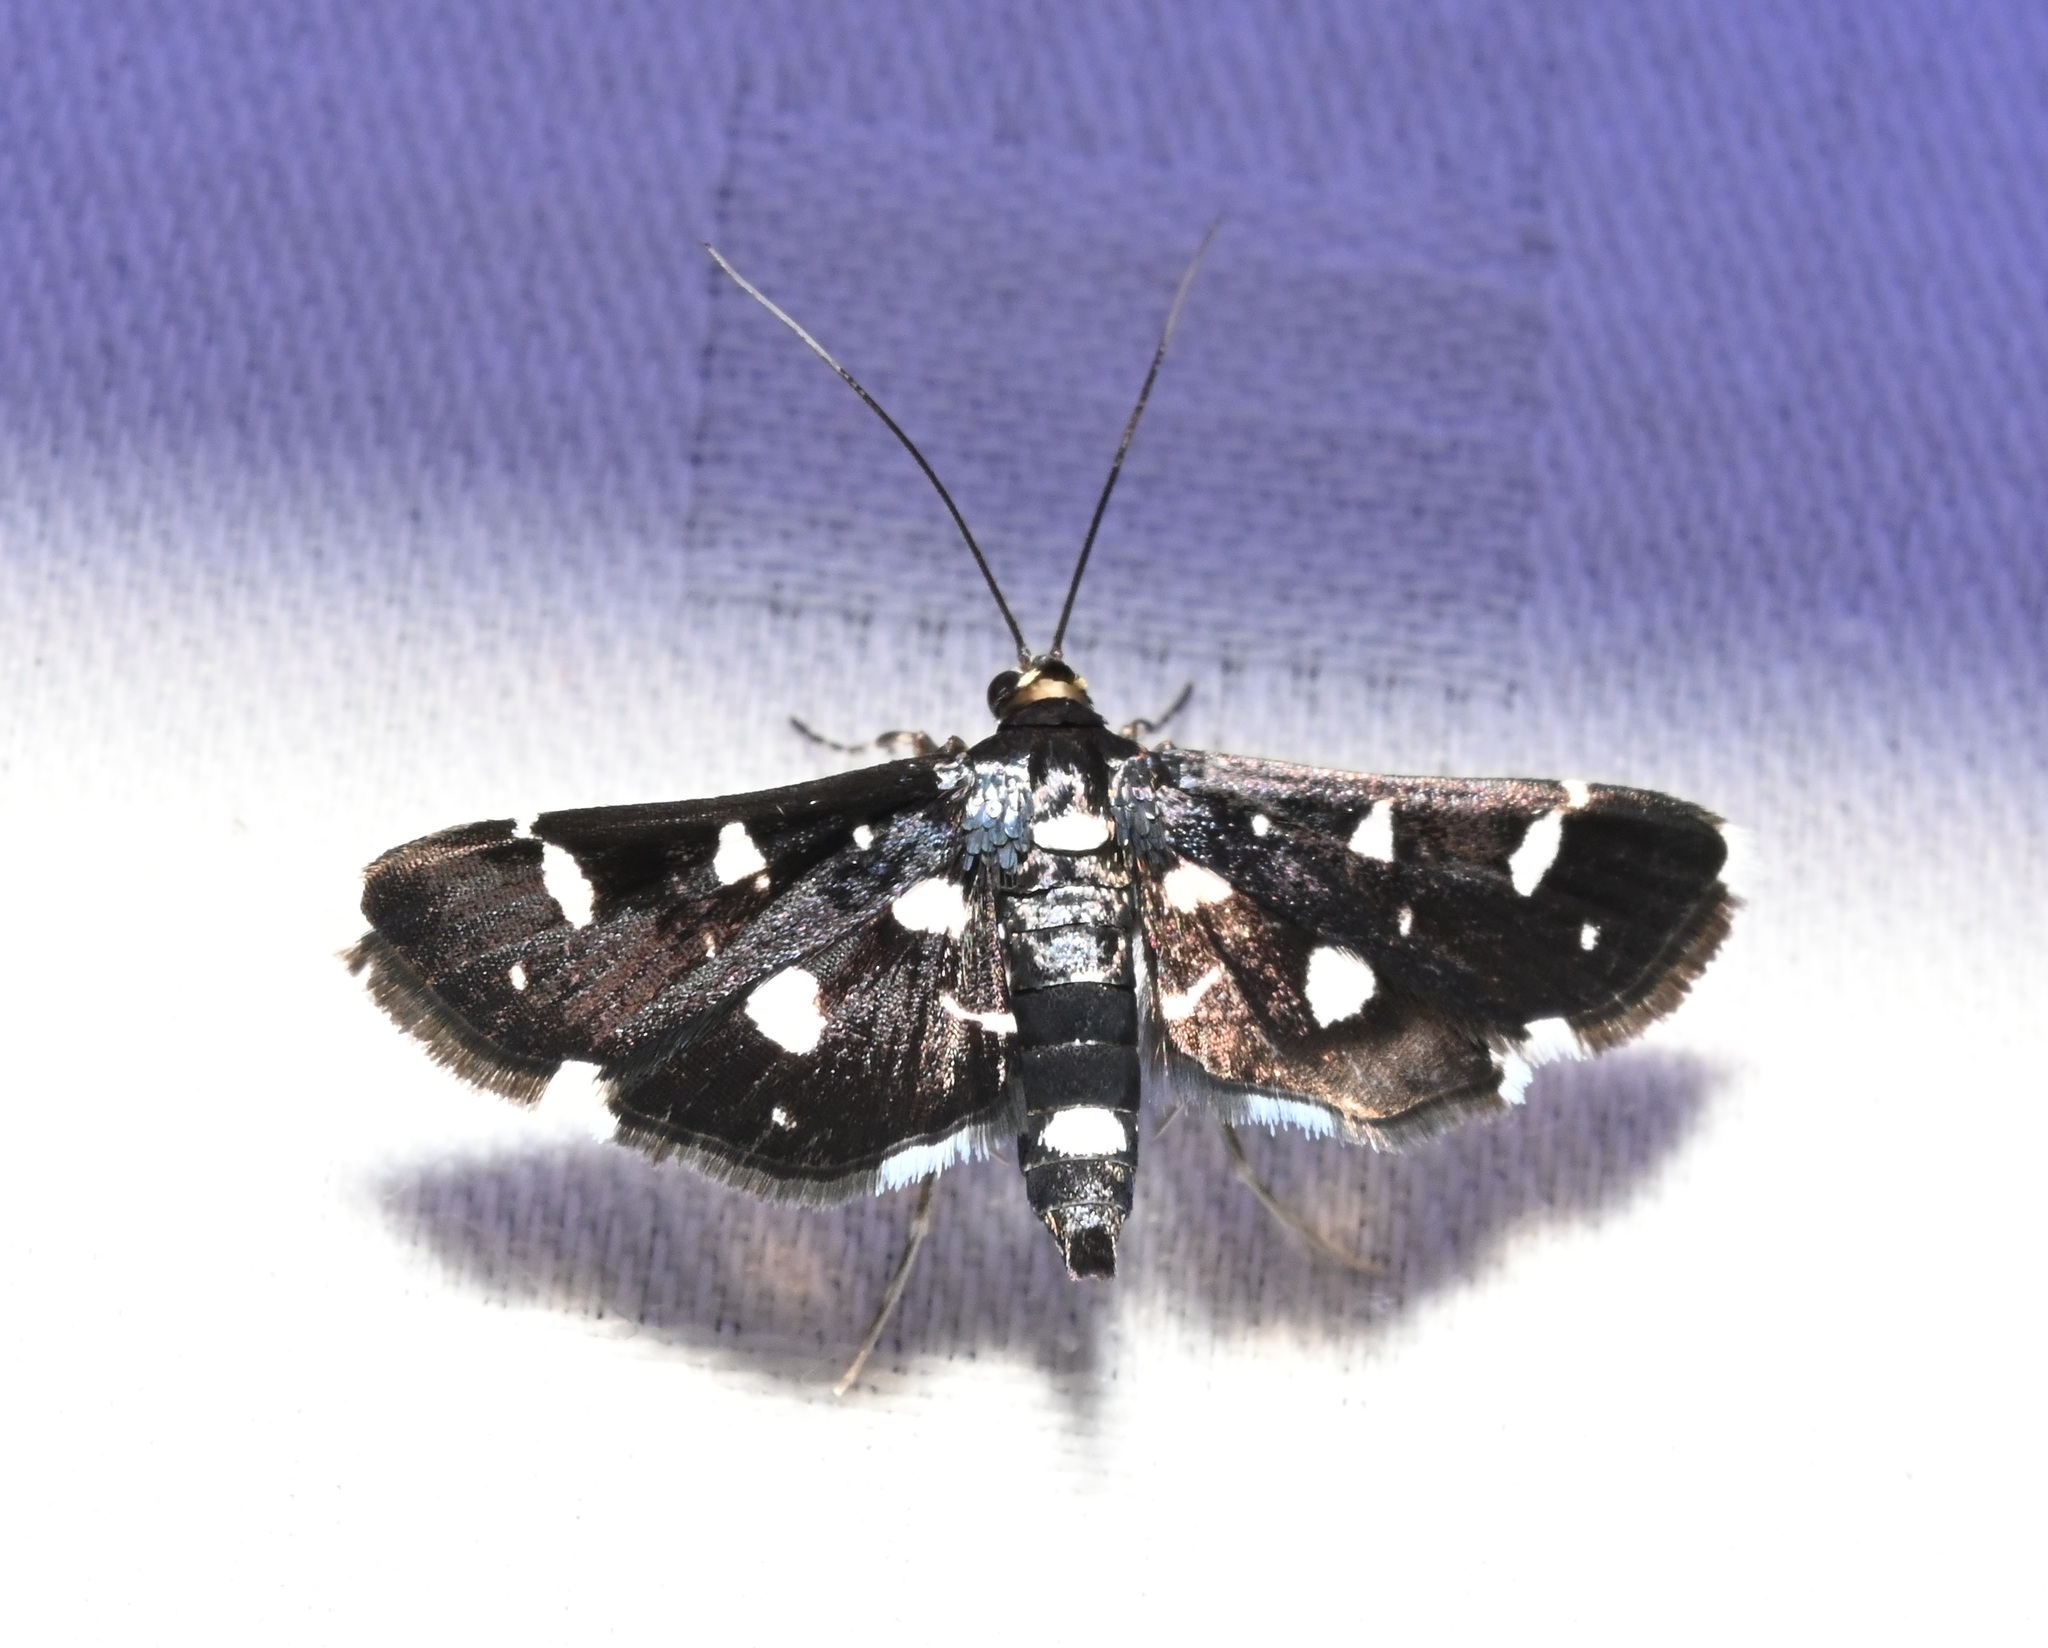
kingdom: Animalia
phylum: Arthropoda
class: Insecta
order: Lepidoptera
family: Crambidae
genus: Bocchoris
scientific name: Bocchoris inspersalis
